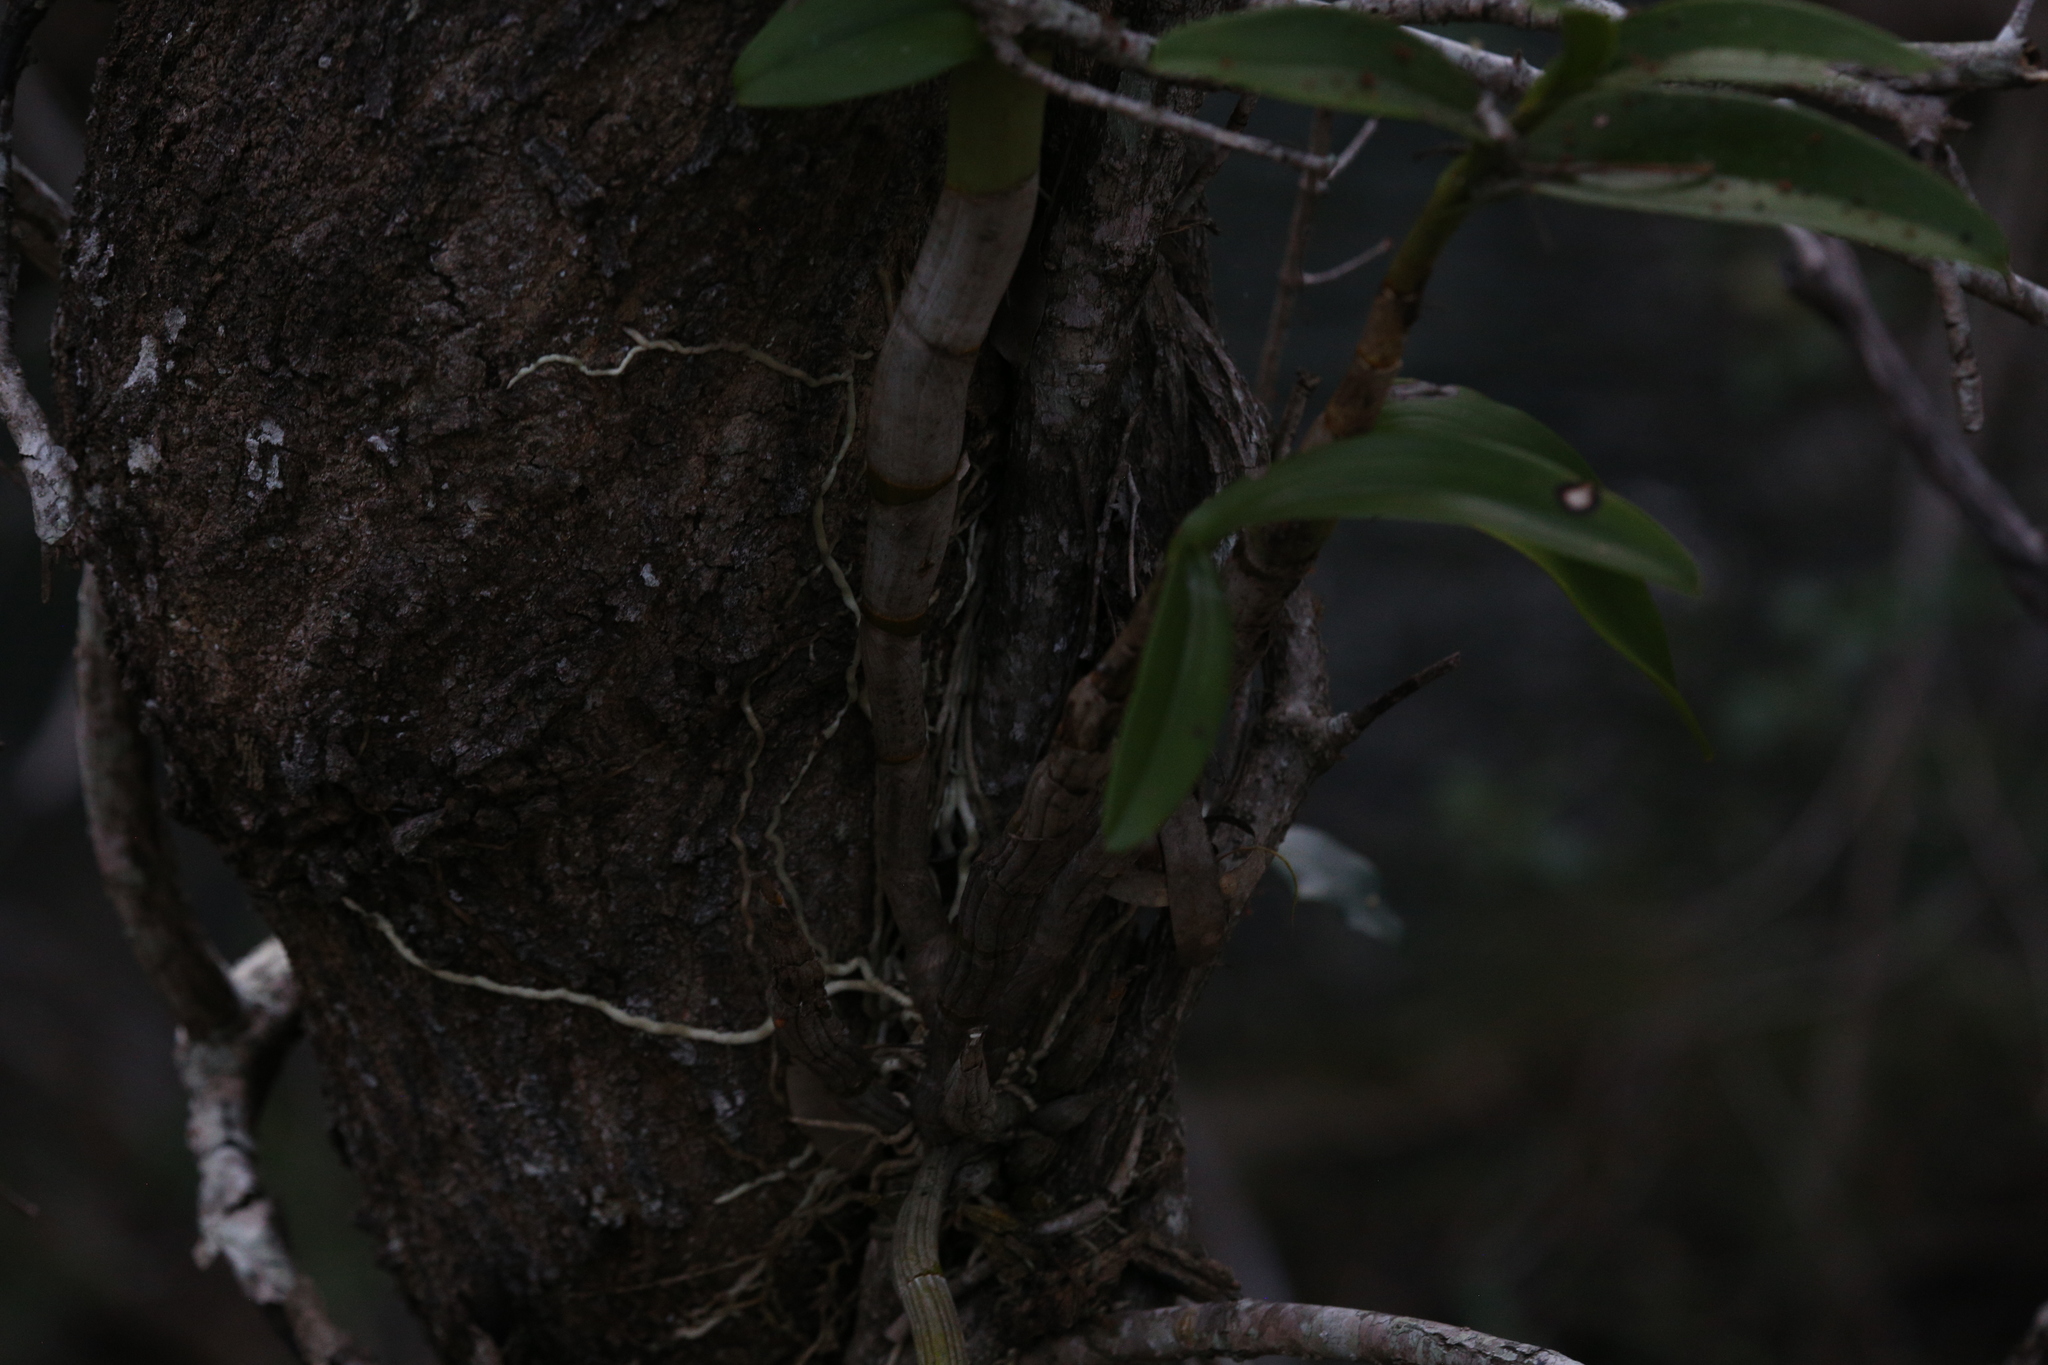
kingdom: Plantae
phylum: Tracheophyta
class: Liliopsida
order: Asparagales
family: Orchidaceae
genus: Dendrobium
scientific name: Dendrobium discolor
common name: Golden antler orchid
